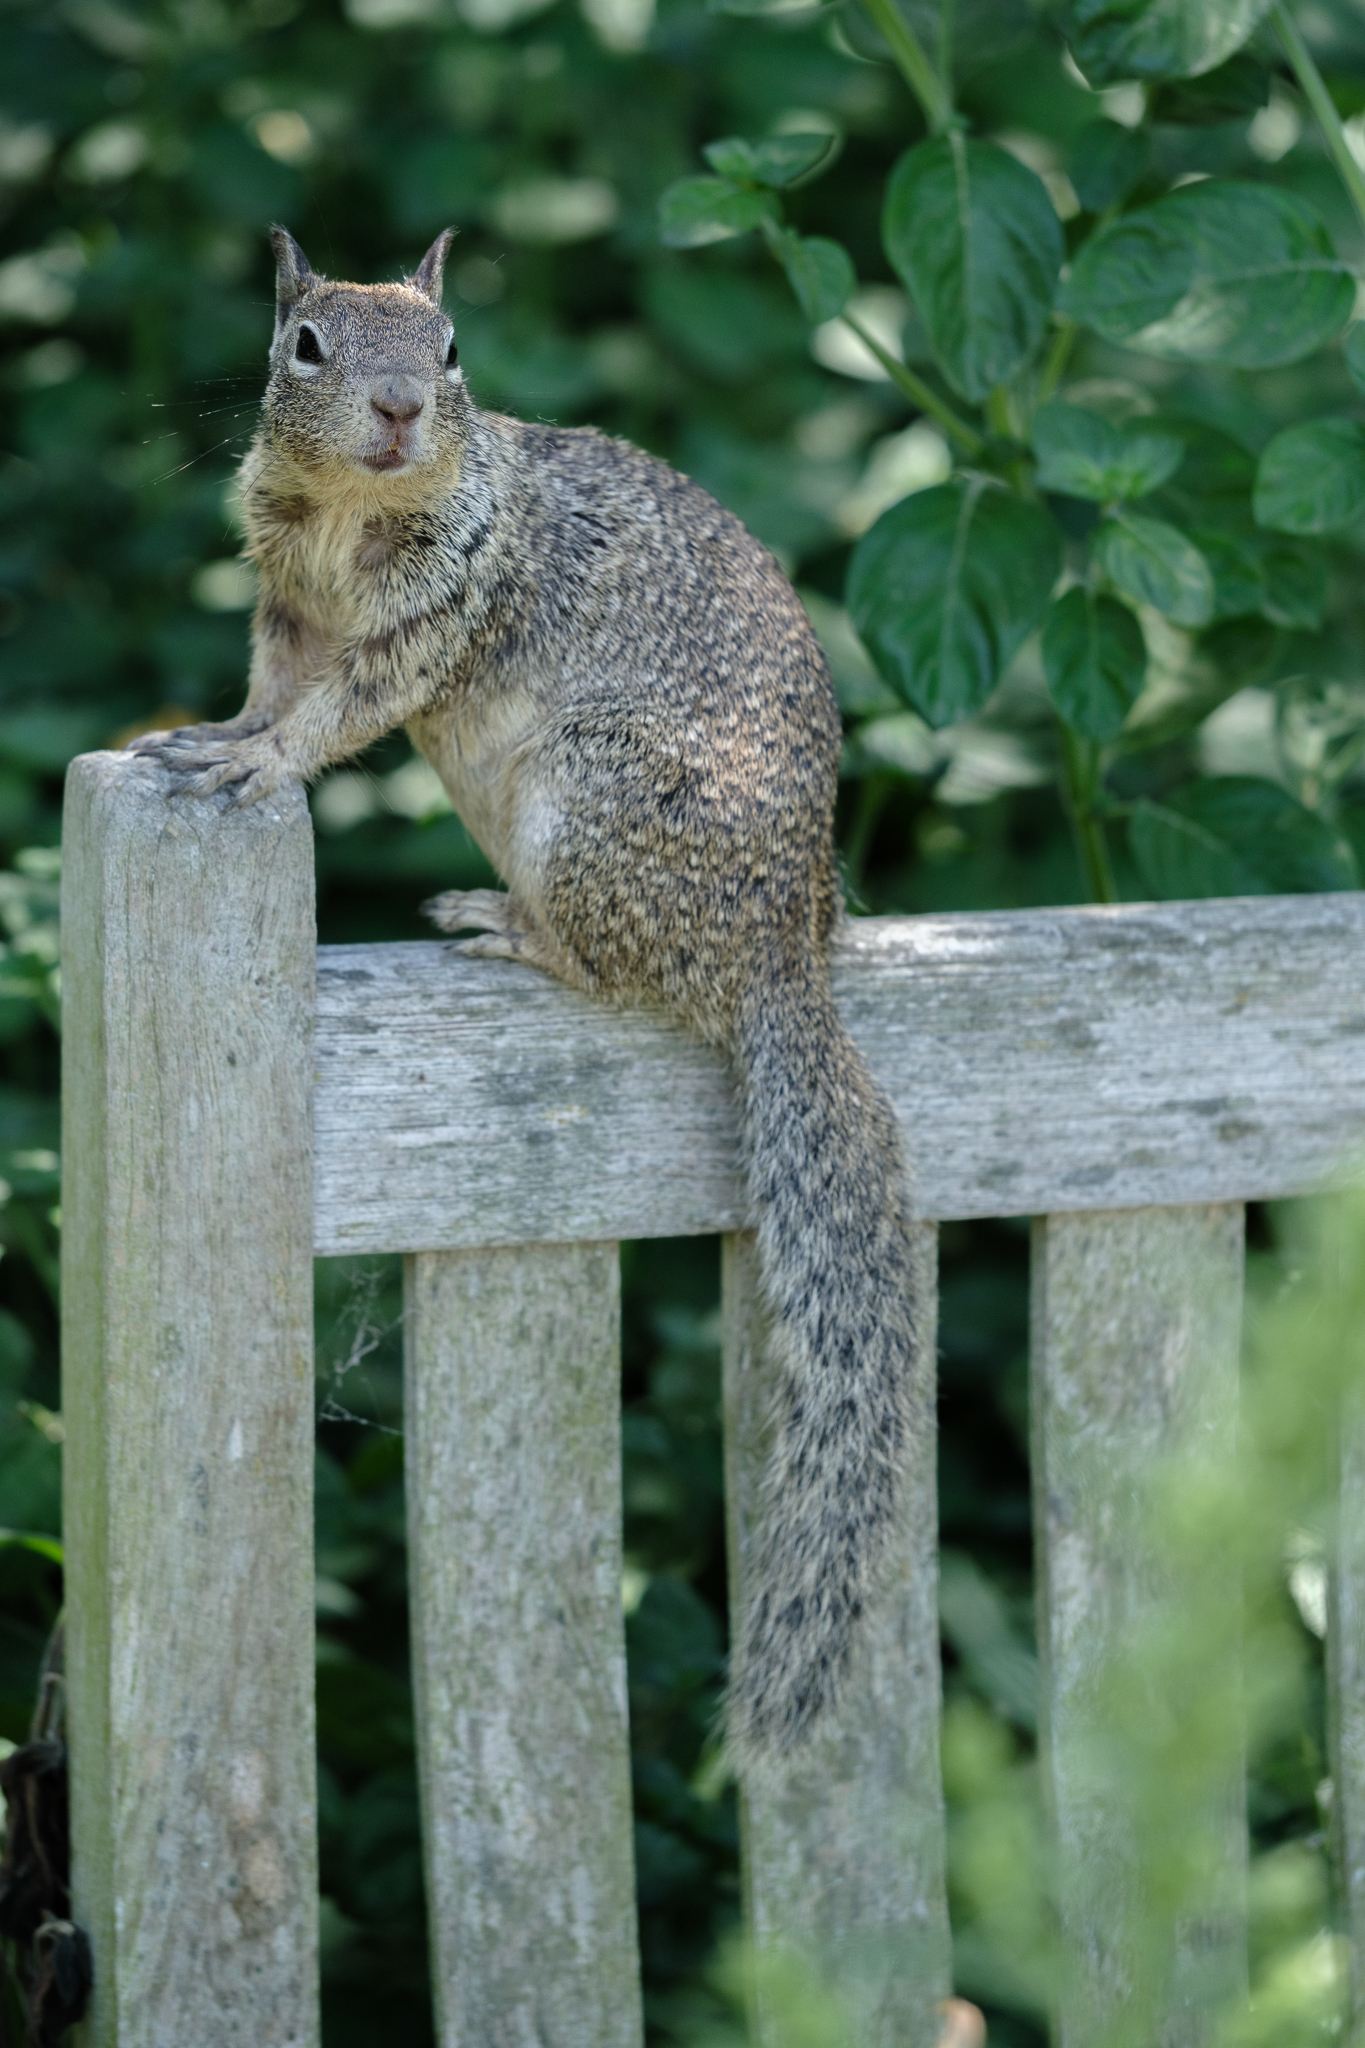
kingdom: Animalia
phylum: Chordata
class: Mammalia
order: Rodentia
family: Sciuridae
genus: Otospermophilus
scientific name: Otospermophilus beecheyi
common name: California ground squirrel
